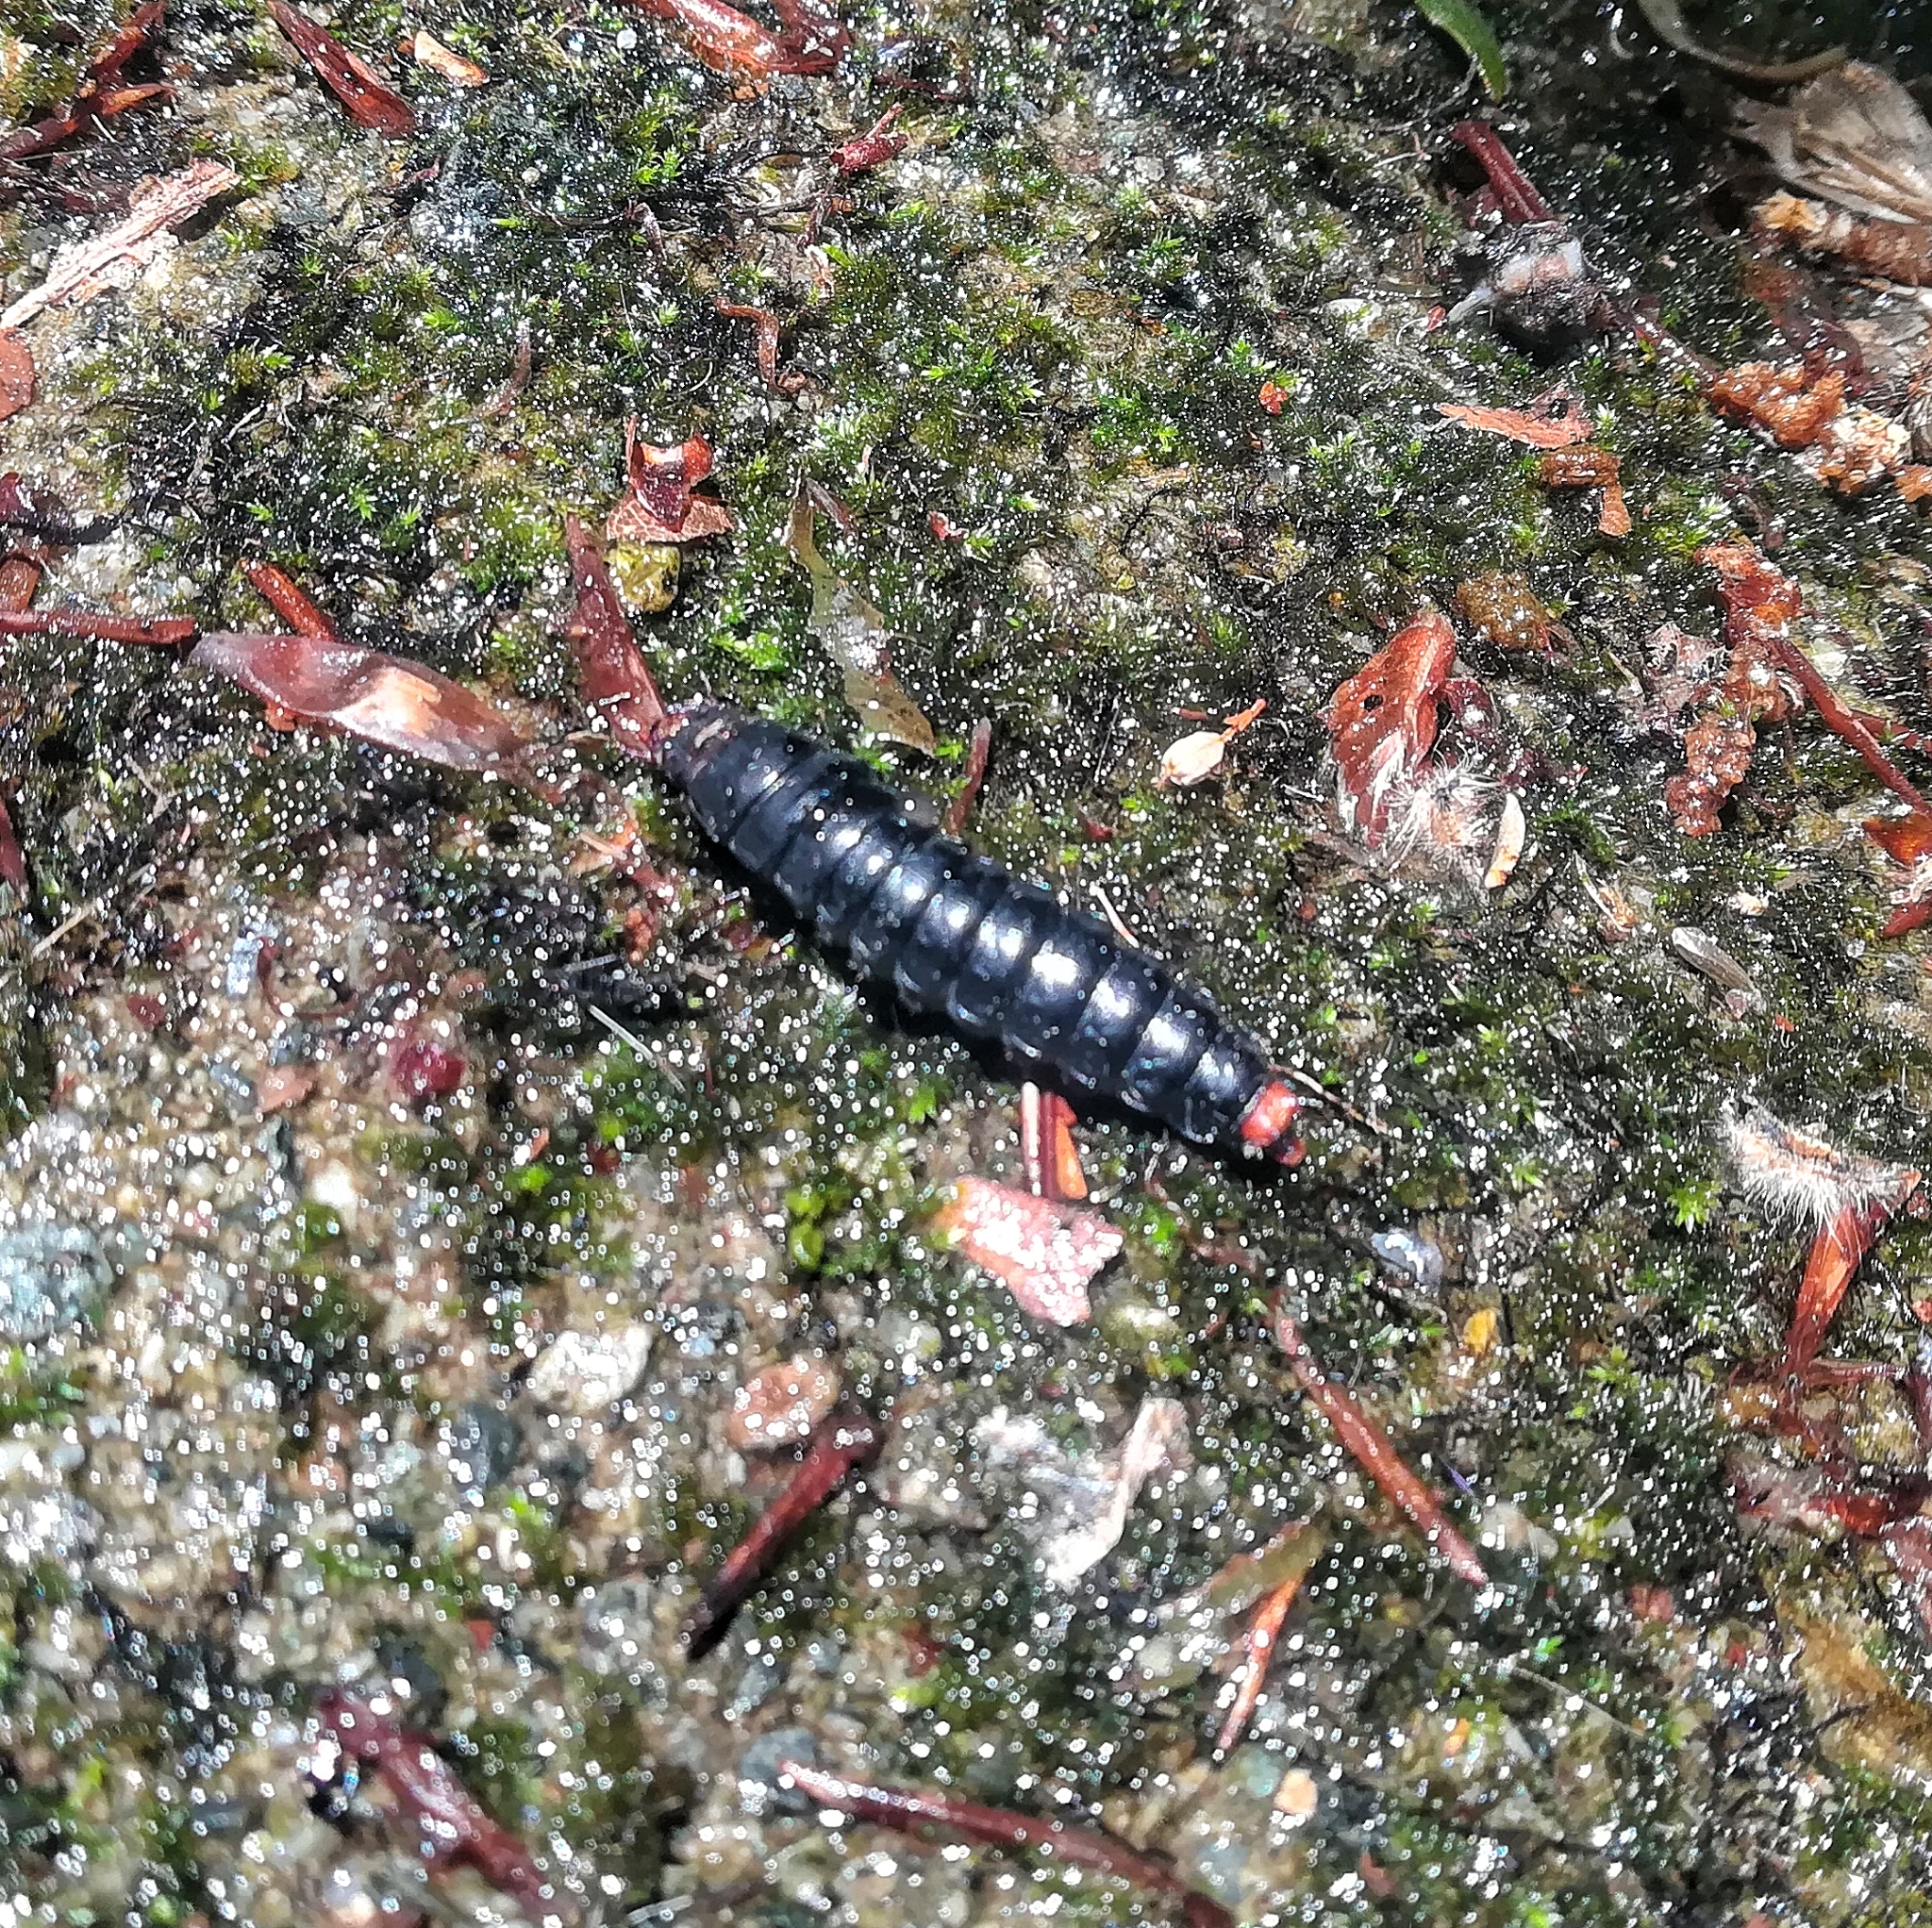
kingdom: Animalia
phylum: Arthropoda
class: Insecta
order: Coleoptera
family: Carabidae
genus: Calosoma
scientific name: Calosoma sycophanta
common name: Forest caterpillar hunter
